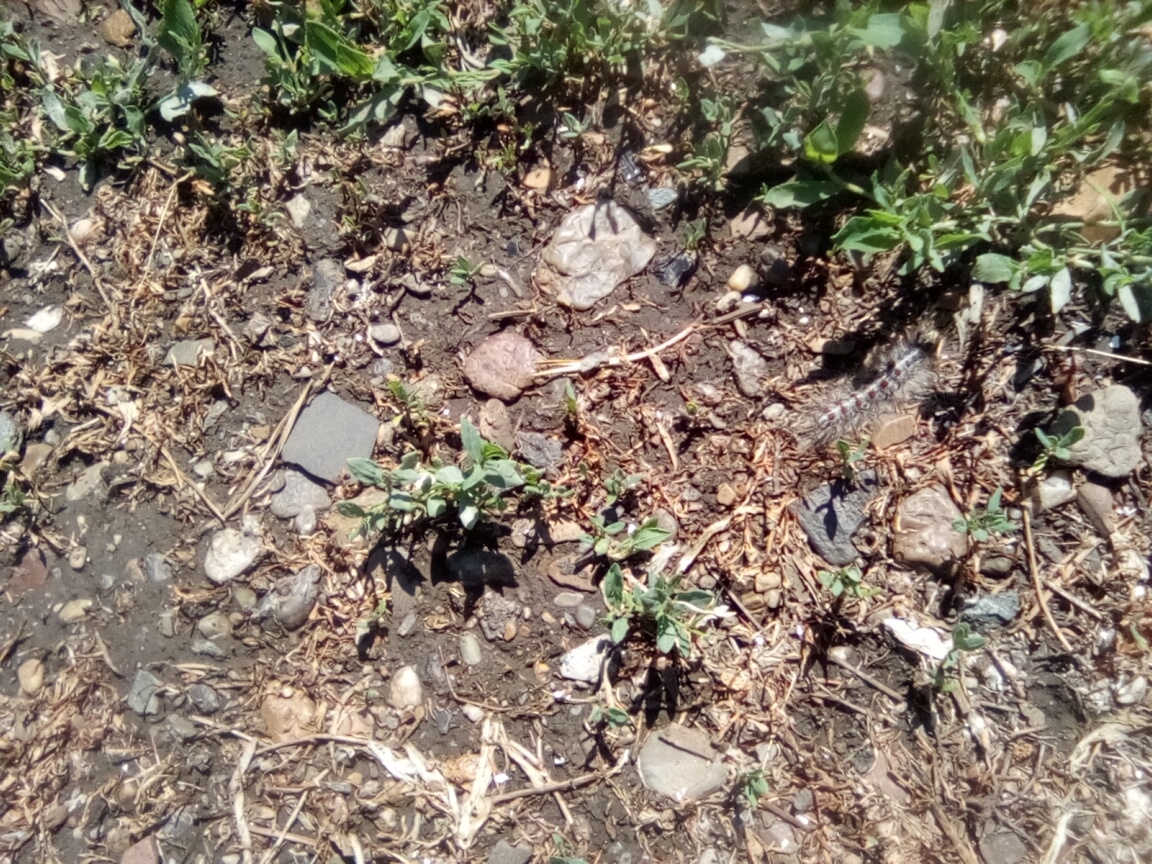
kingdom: Animalia
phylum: Arthropoda
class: Insecta
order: Lepidoptera
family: Erebidae
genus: Lymantria
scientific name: Lymantria dispar
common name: Gypsy moth
